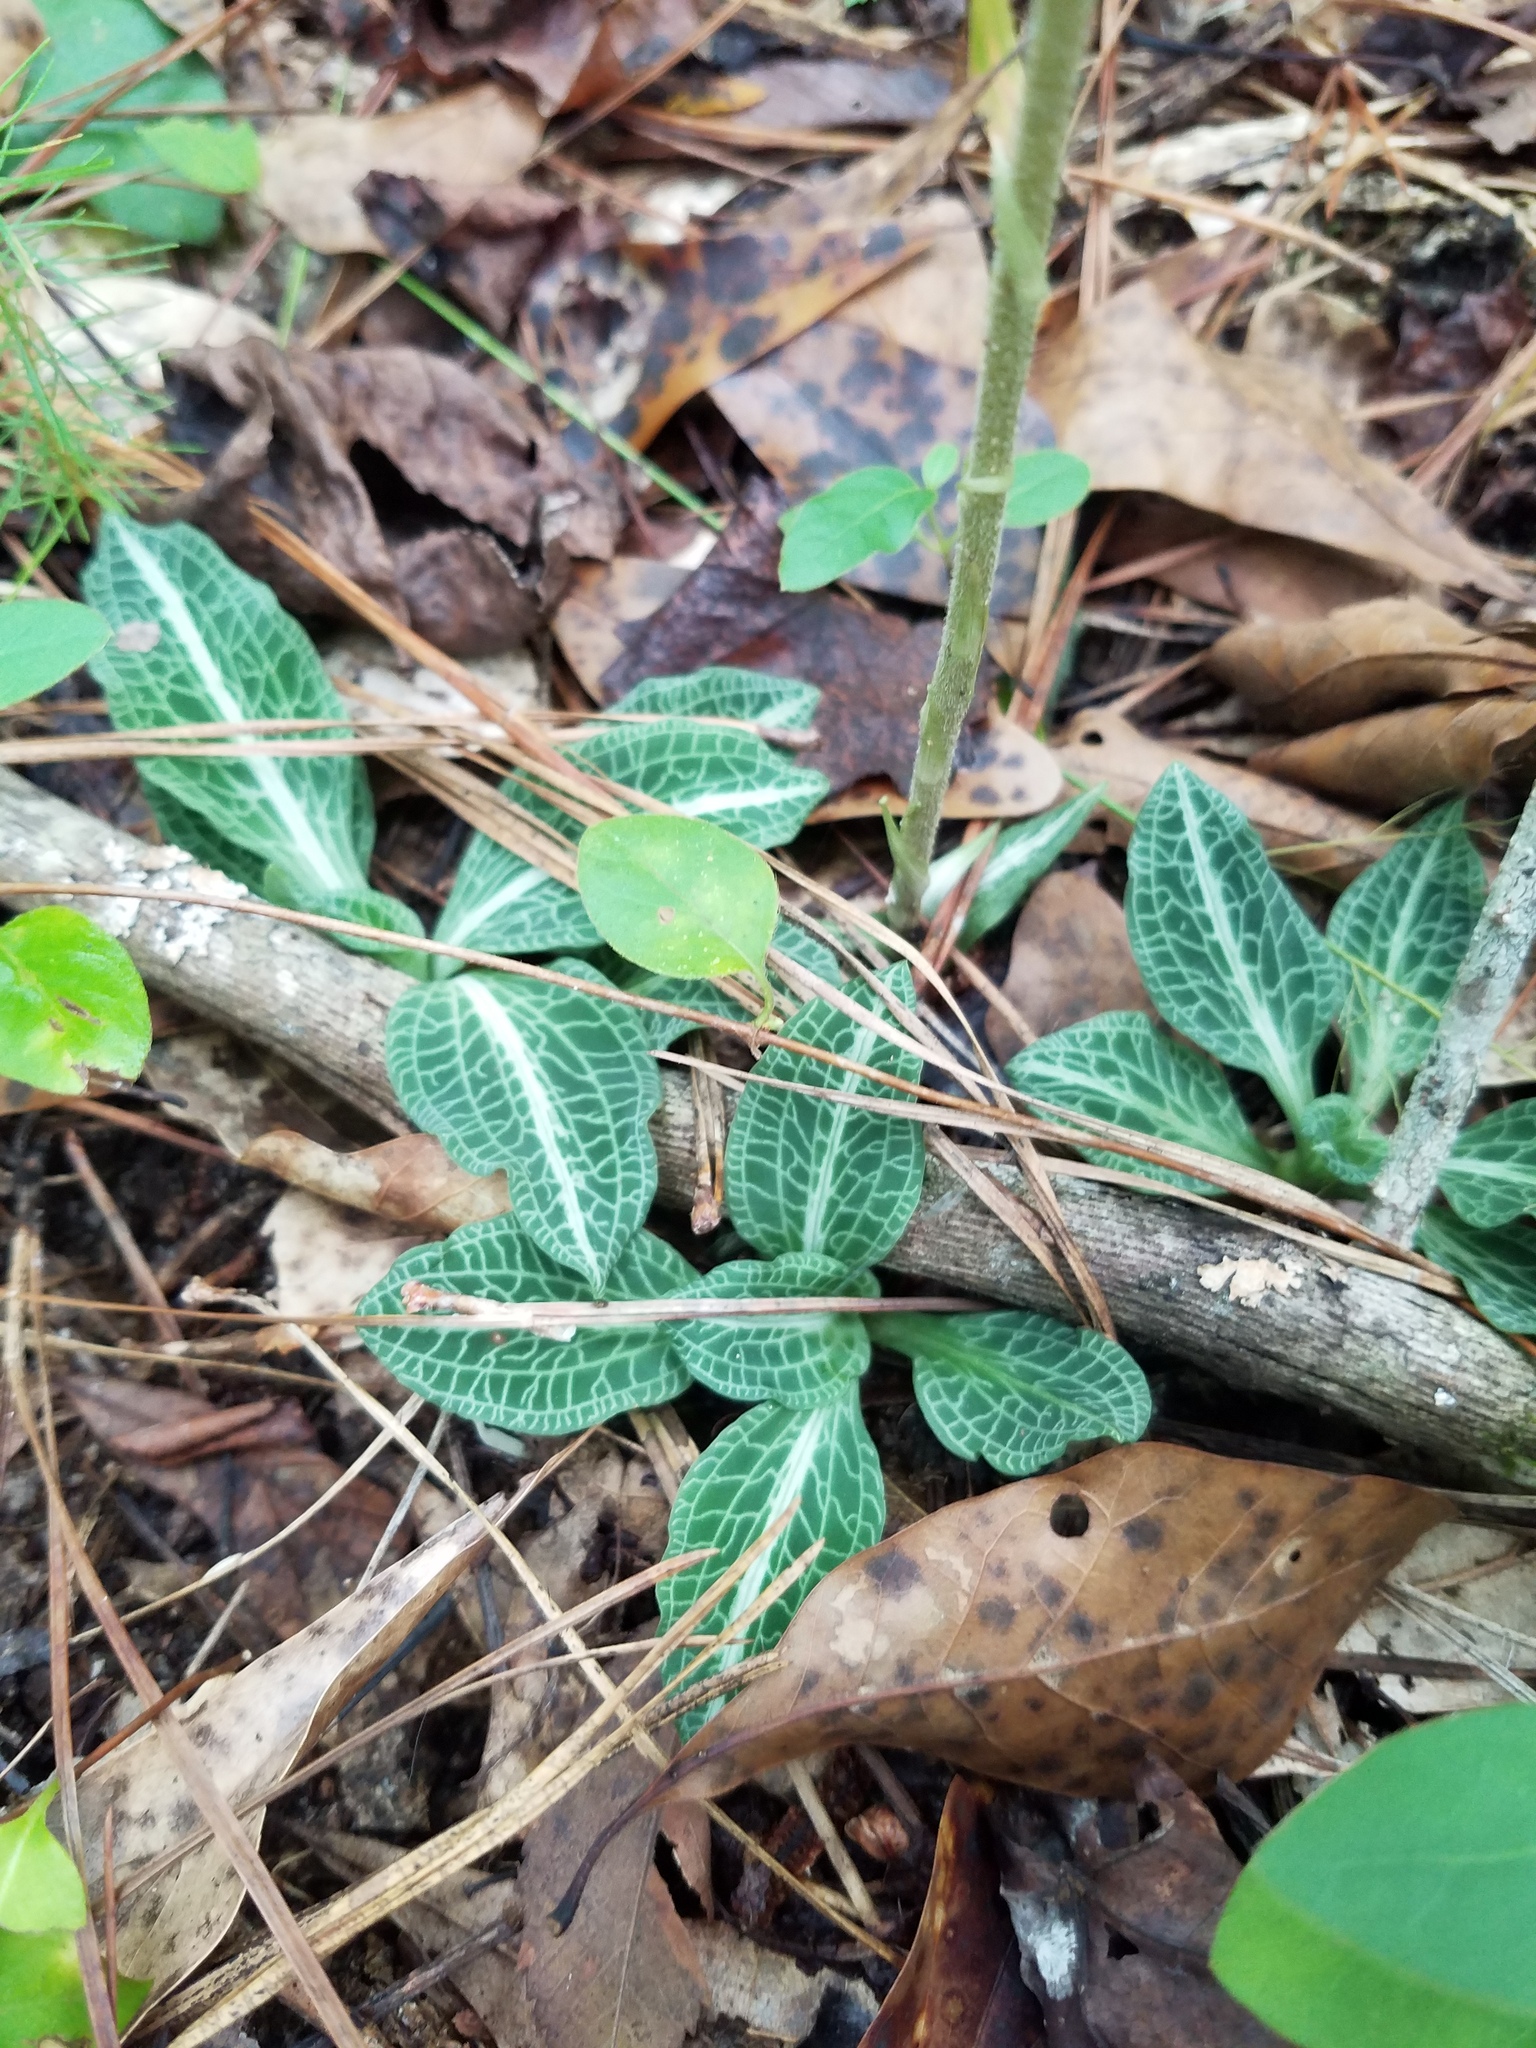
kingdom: Plantae
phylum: Tracheophyta
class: Liliopsida
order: Asparagales
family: Orchidaceae
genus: Goodyera
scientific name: Goodyera pubescens
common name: Downy rattlesnake-plantain
